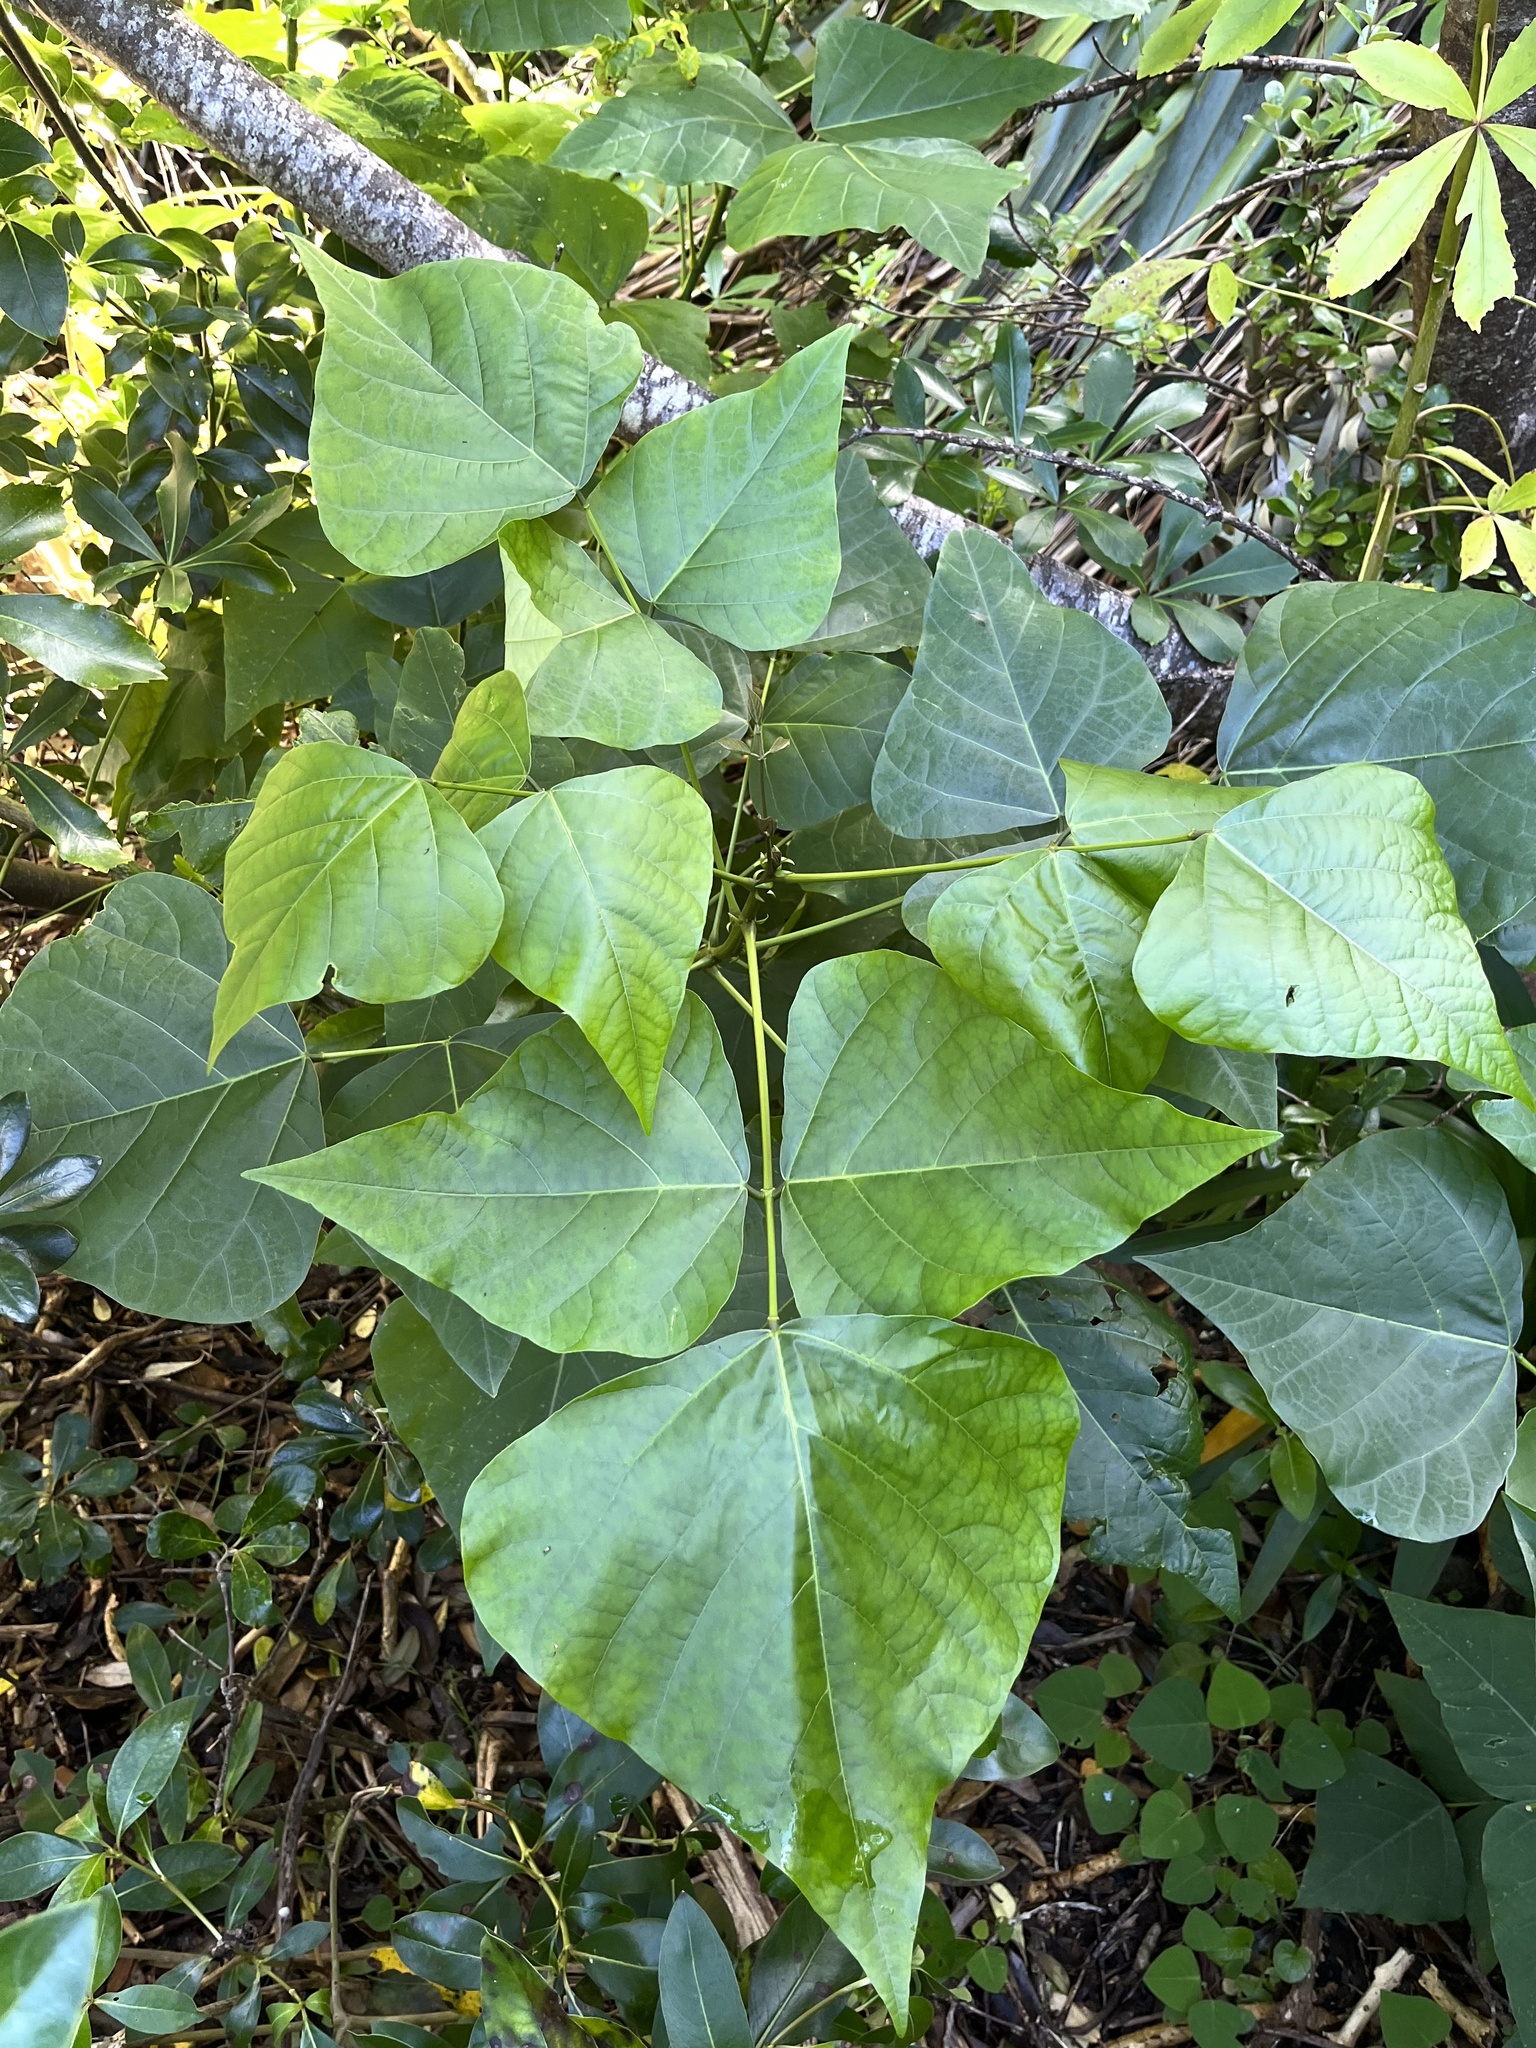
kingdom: Plantae
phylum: Tracheophyta
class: Magnoliopsida
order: Fabales
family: Fabaceae
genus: Erythrina
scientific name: Erythrina lysistemon
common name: Common coral tree
